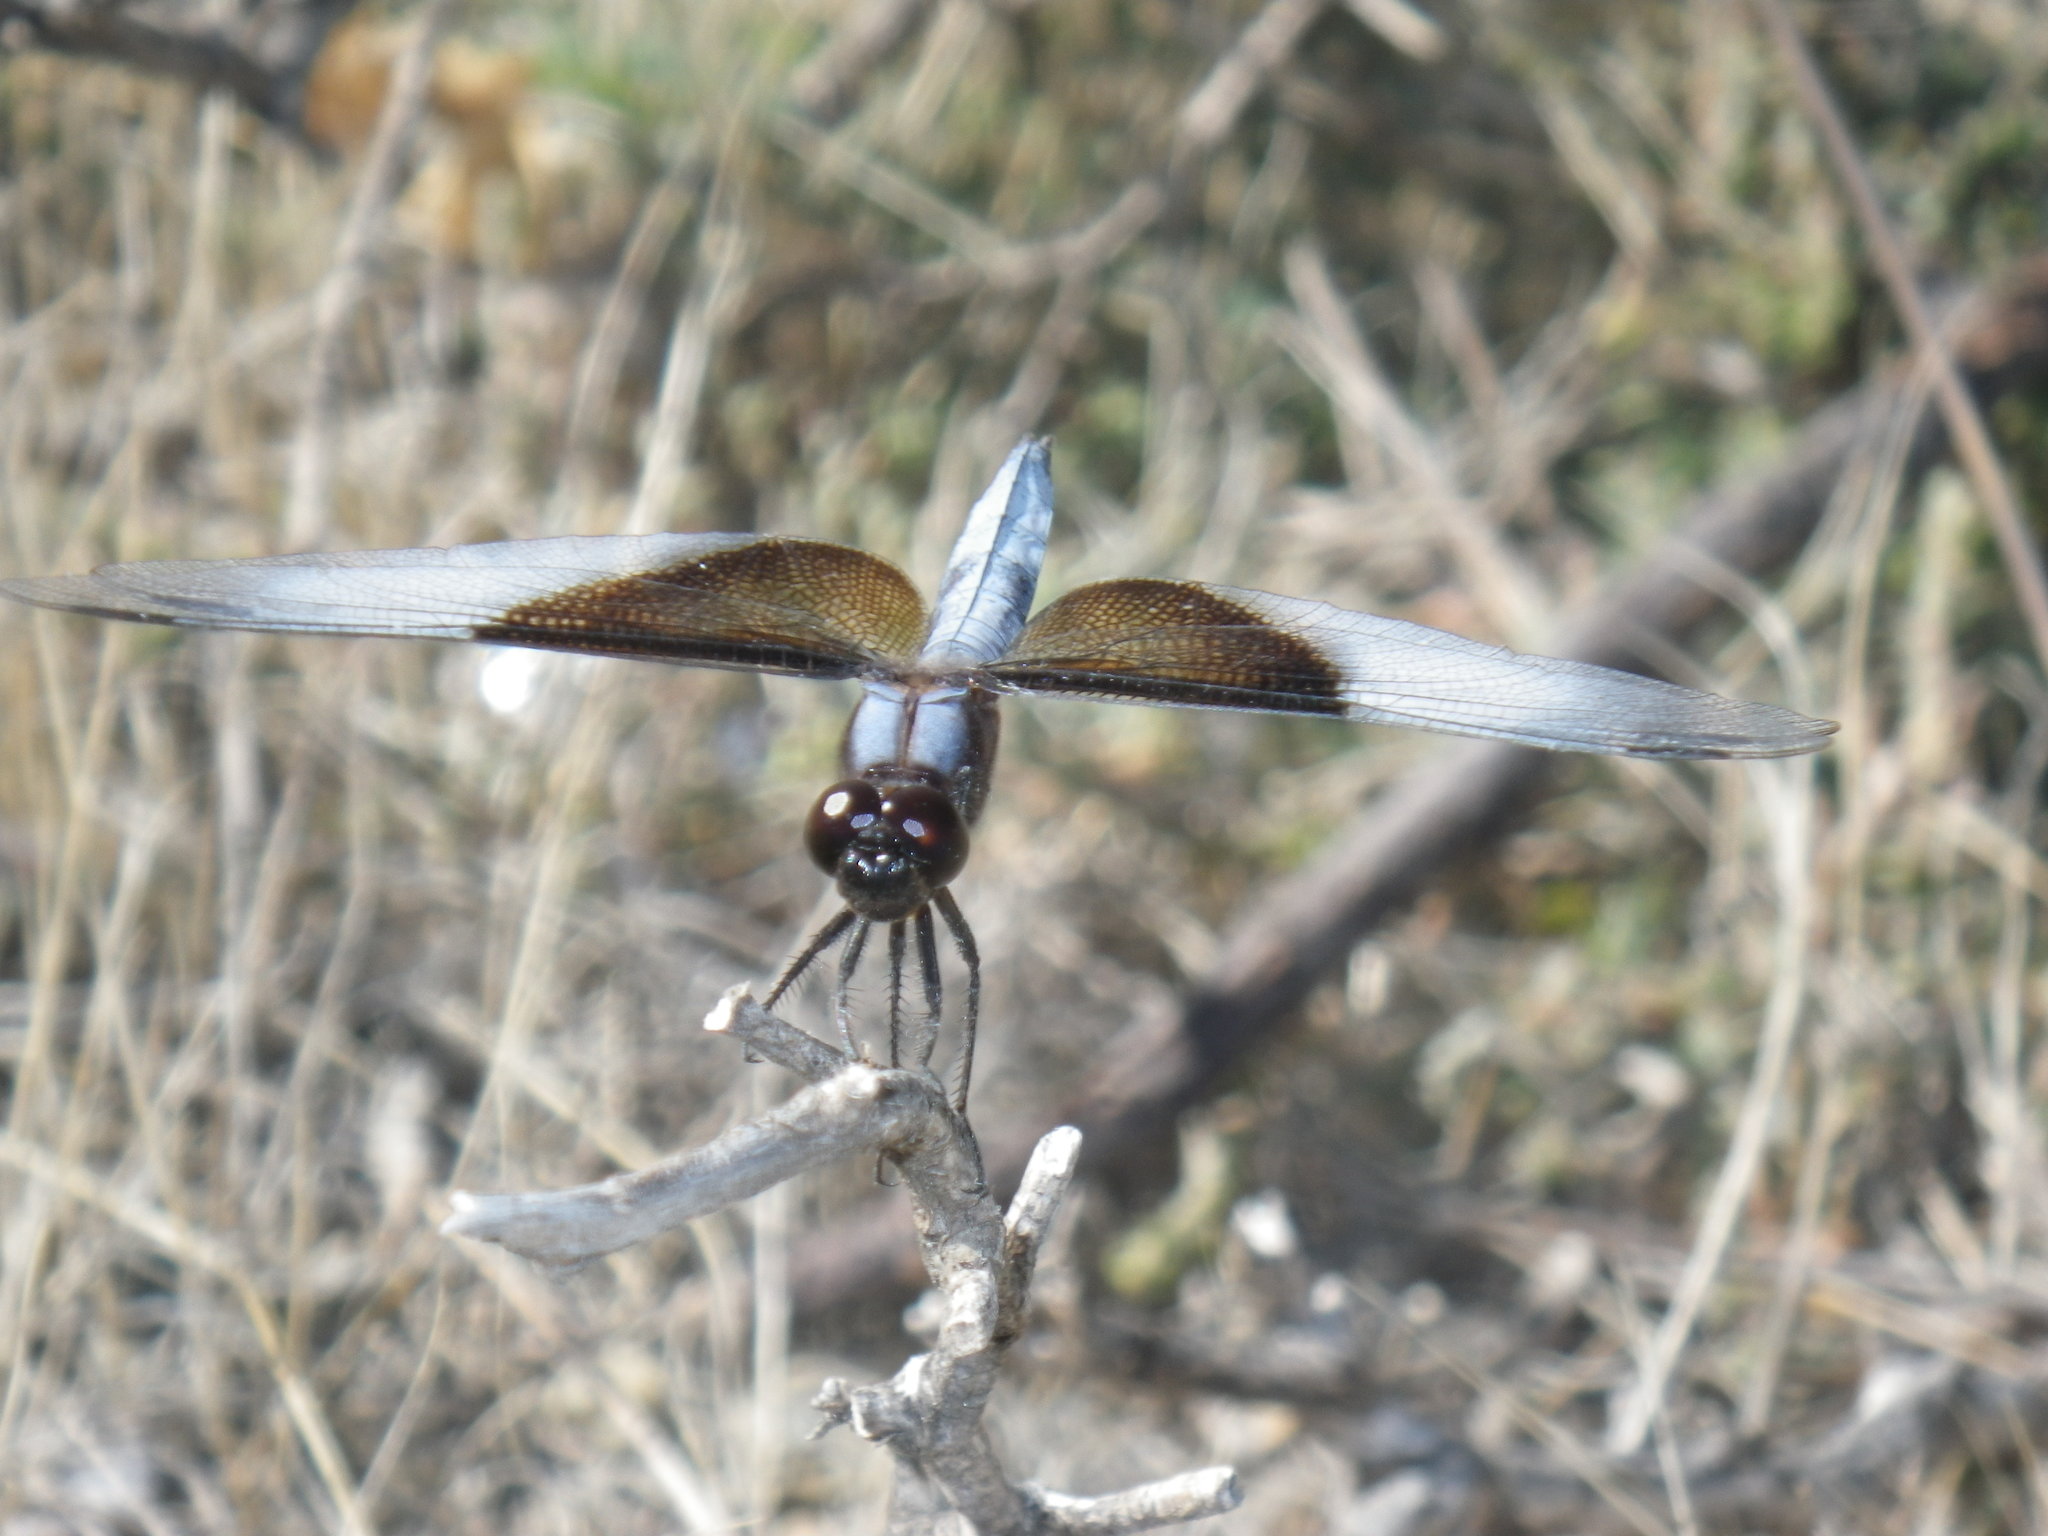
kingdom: Animalia
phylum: Arthropoda
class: Insecta
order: Odonata
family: Libellulidae
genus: Libellula
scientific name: Libellula luctuosa
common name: Widow skimmer
